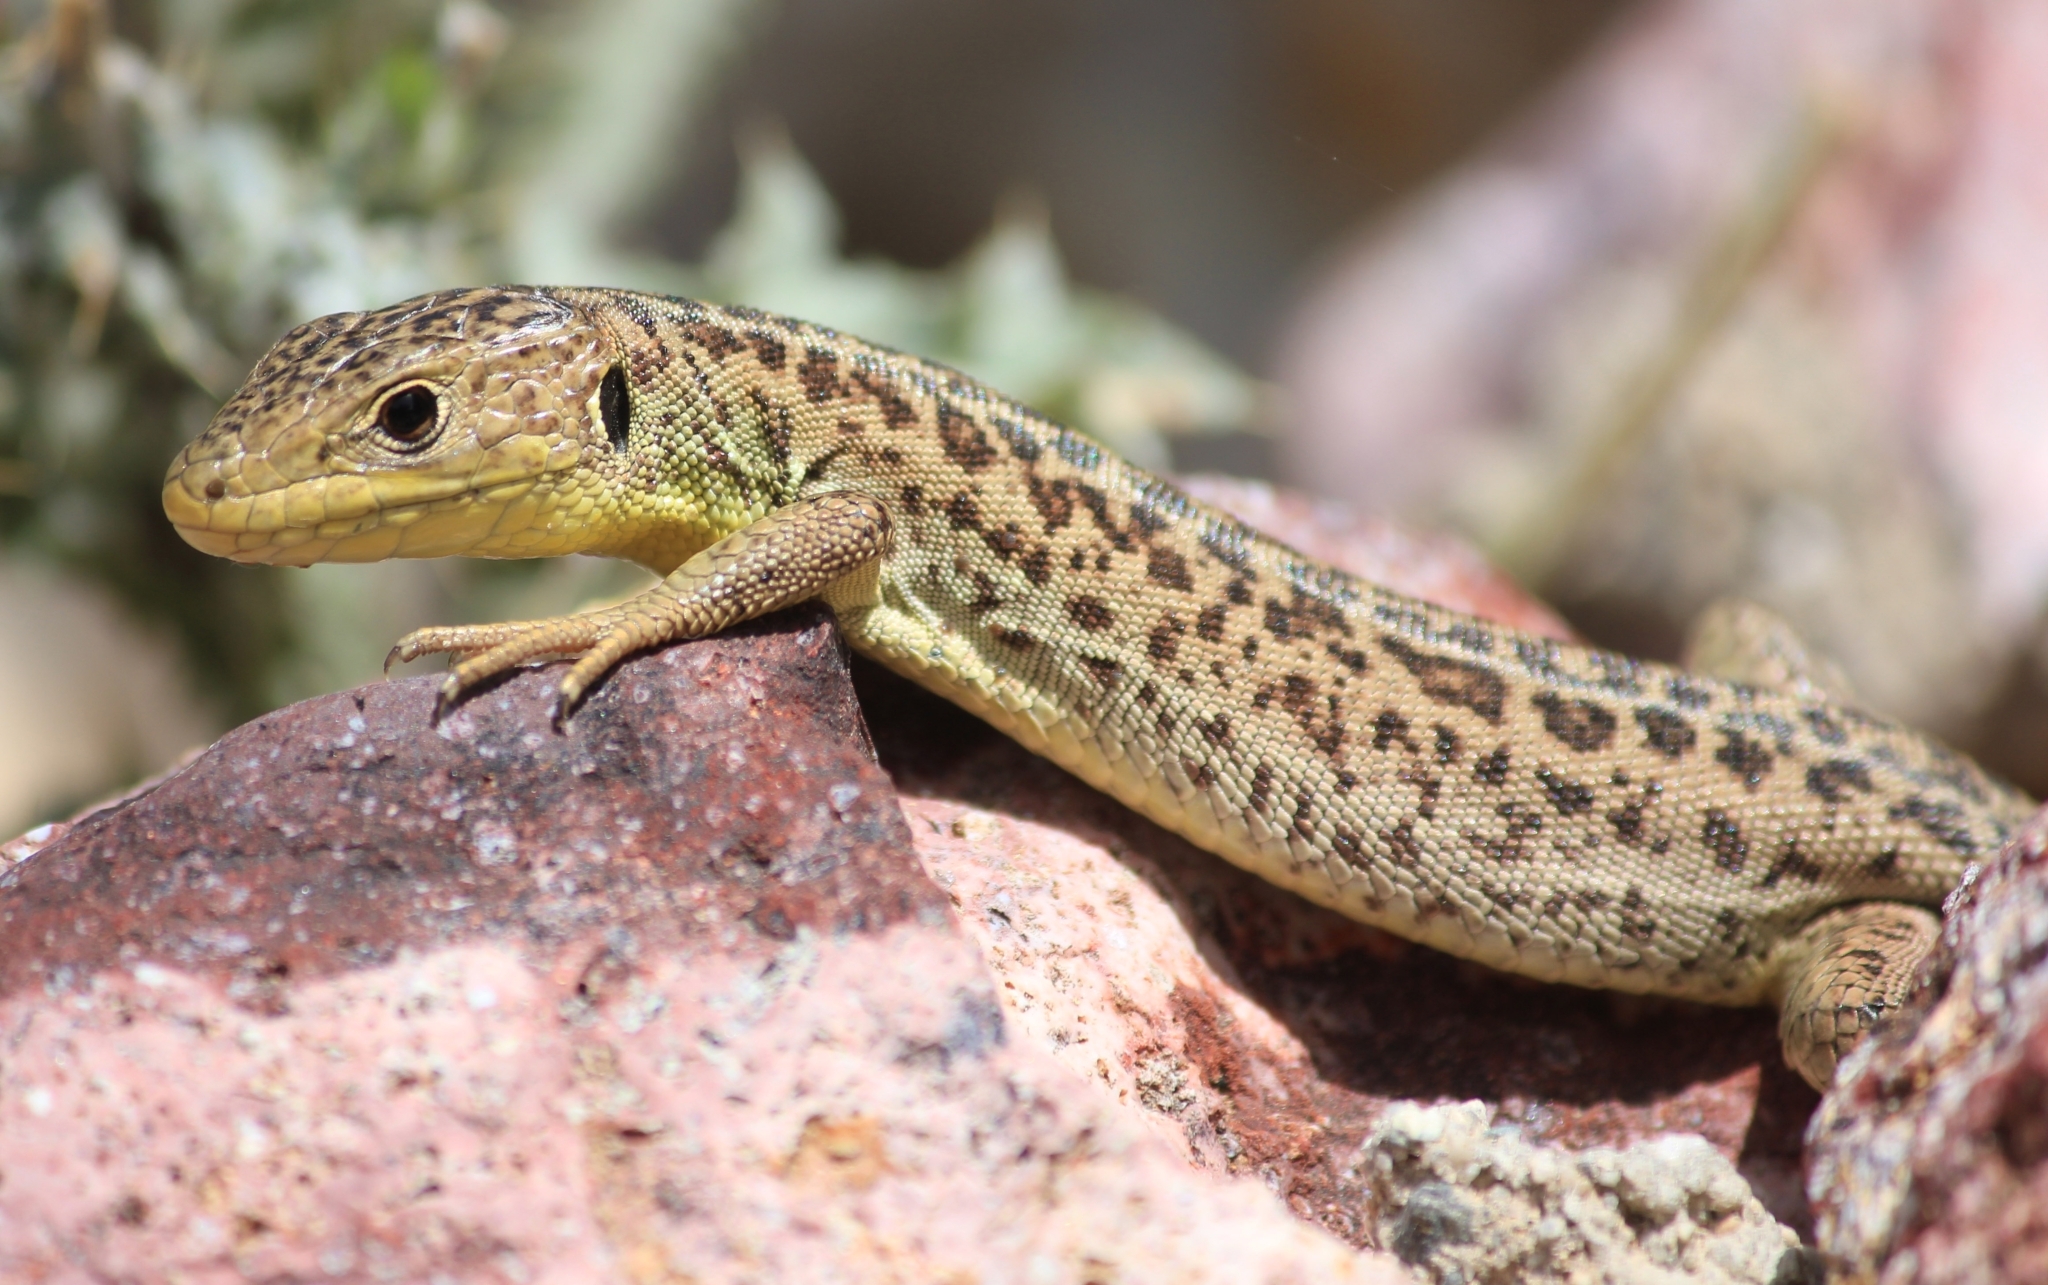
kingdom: Animalia
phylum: Chordata
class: Squamata
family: Lacertidae
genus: Lacerta
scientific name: Lacerta trilineata
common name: Balkan green lizard
